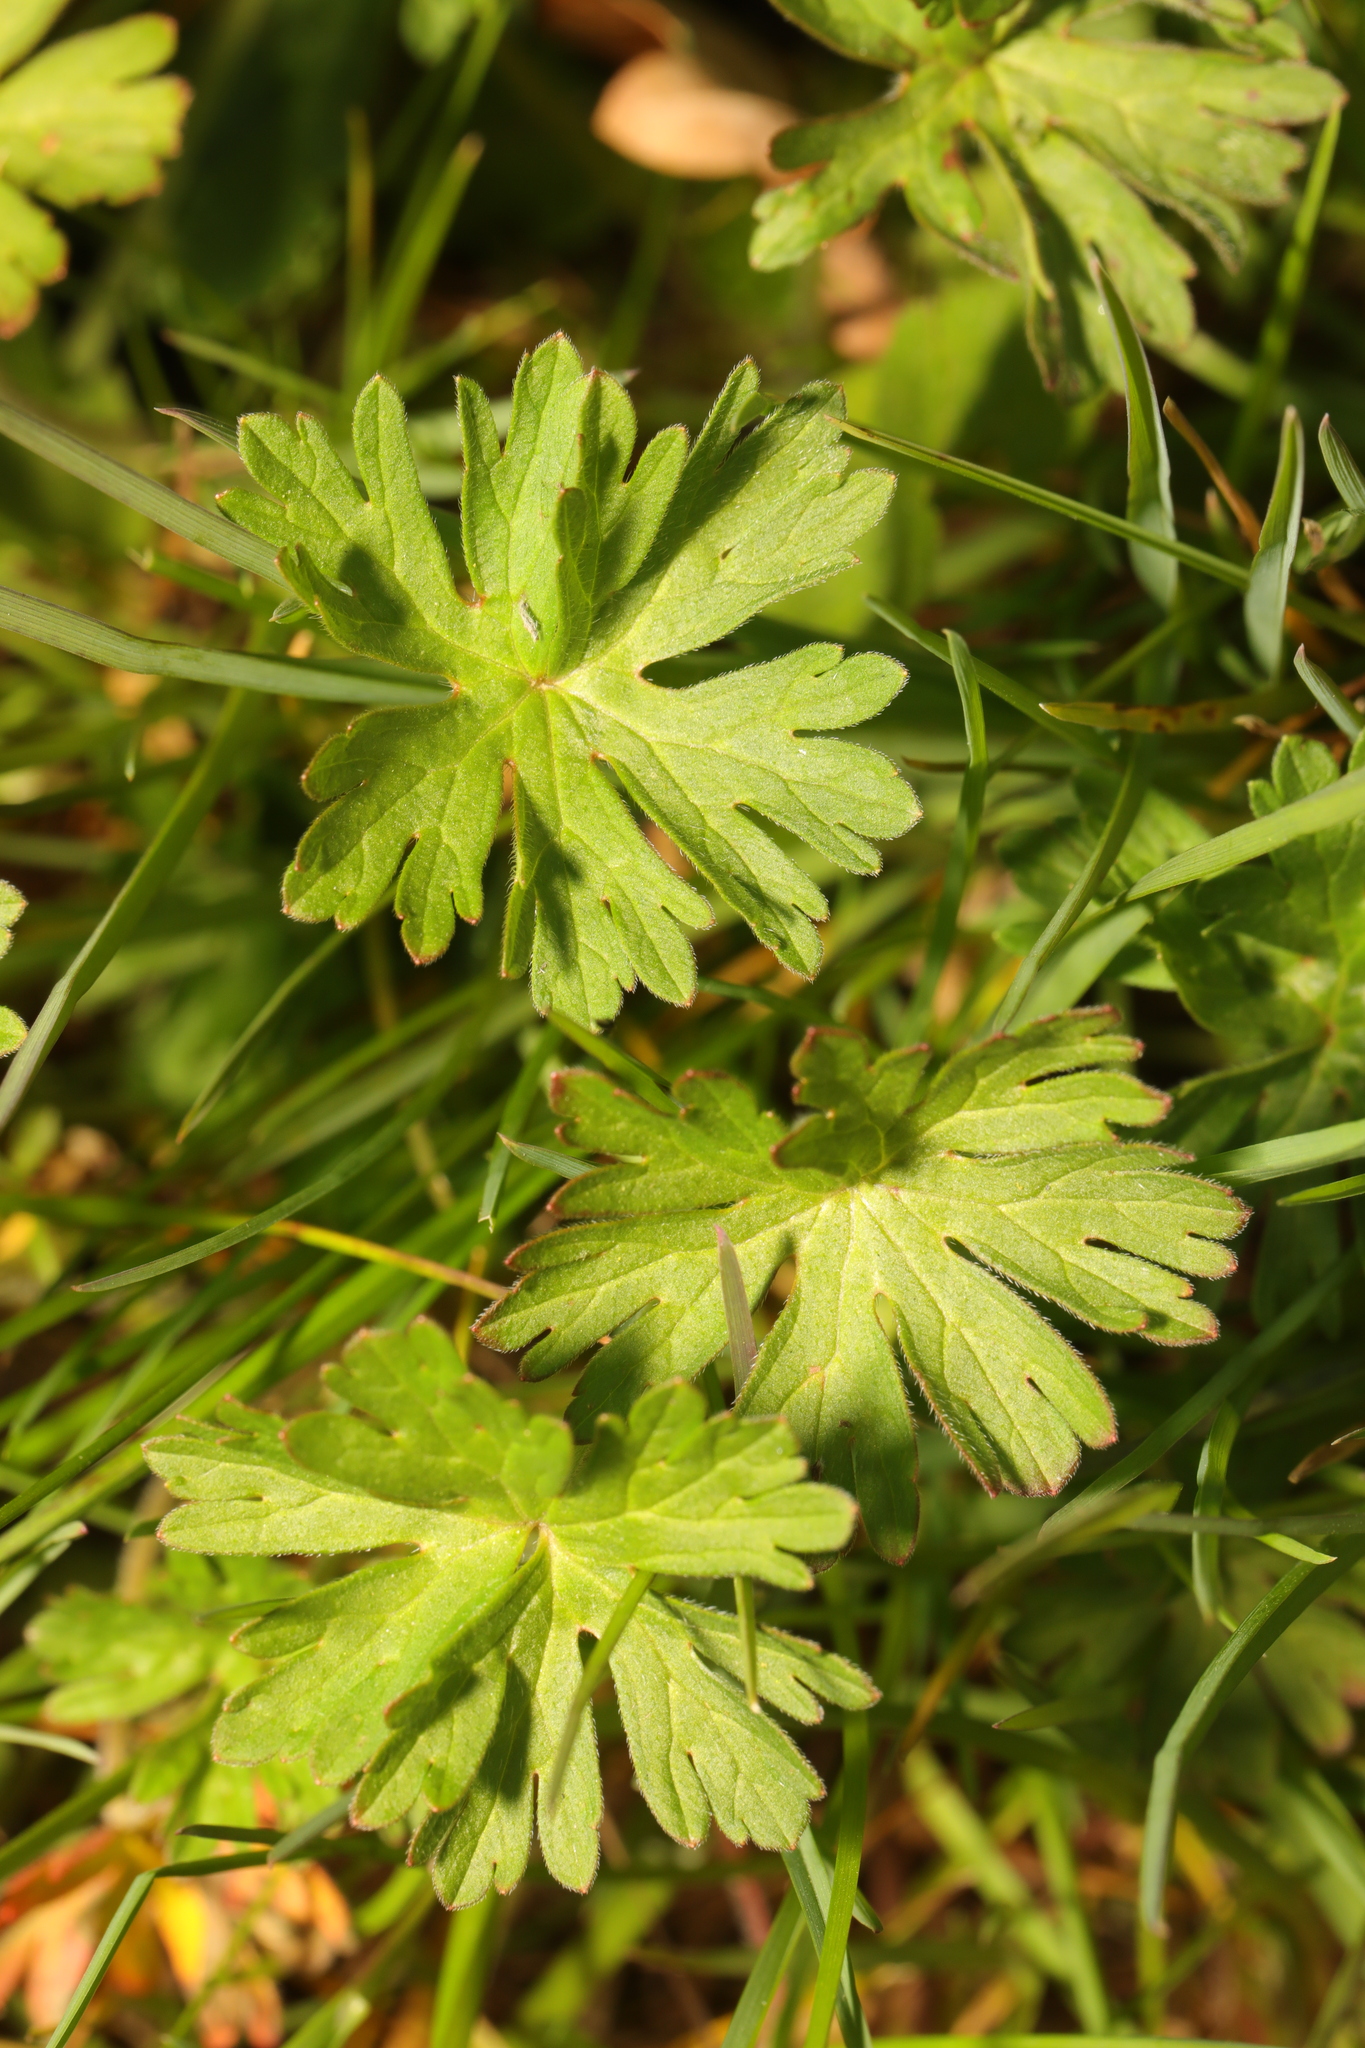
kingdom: Plantae
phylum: Tracheophyta
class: Magnoliopsida
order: Geraniales
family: Geraniaceae
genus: Geranium
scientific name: Geranium dissectum
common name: Cut-leaved crane's-bill
